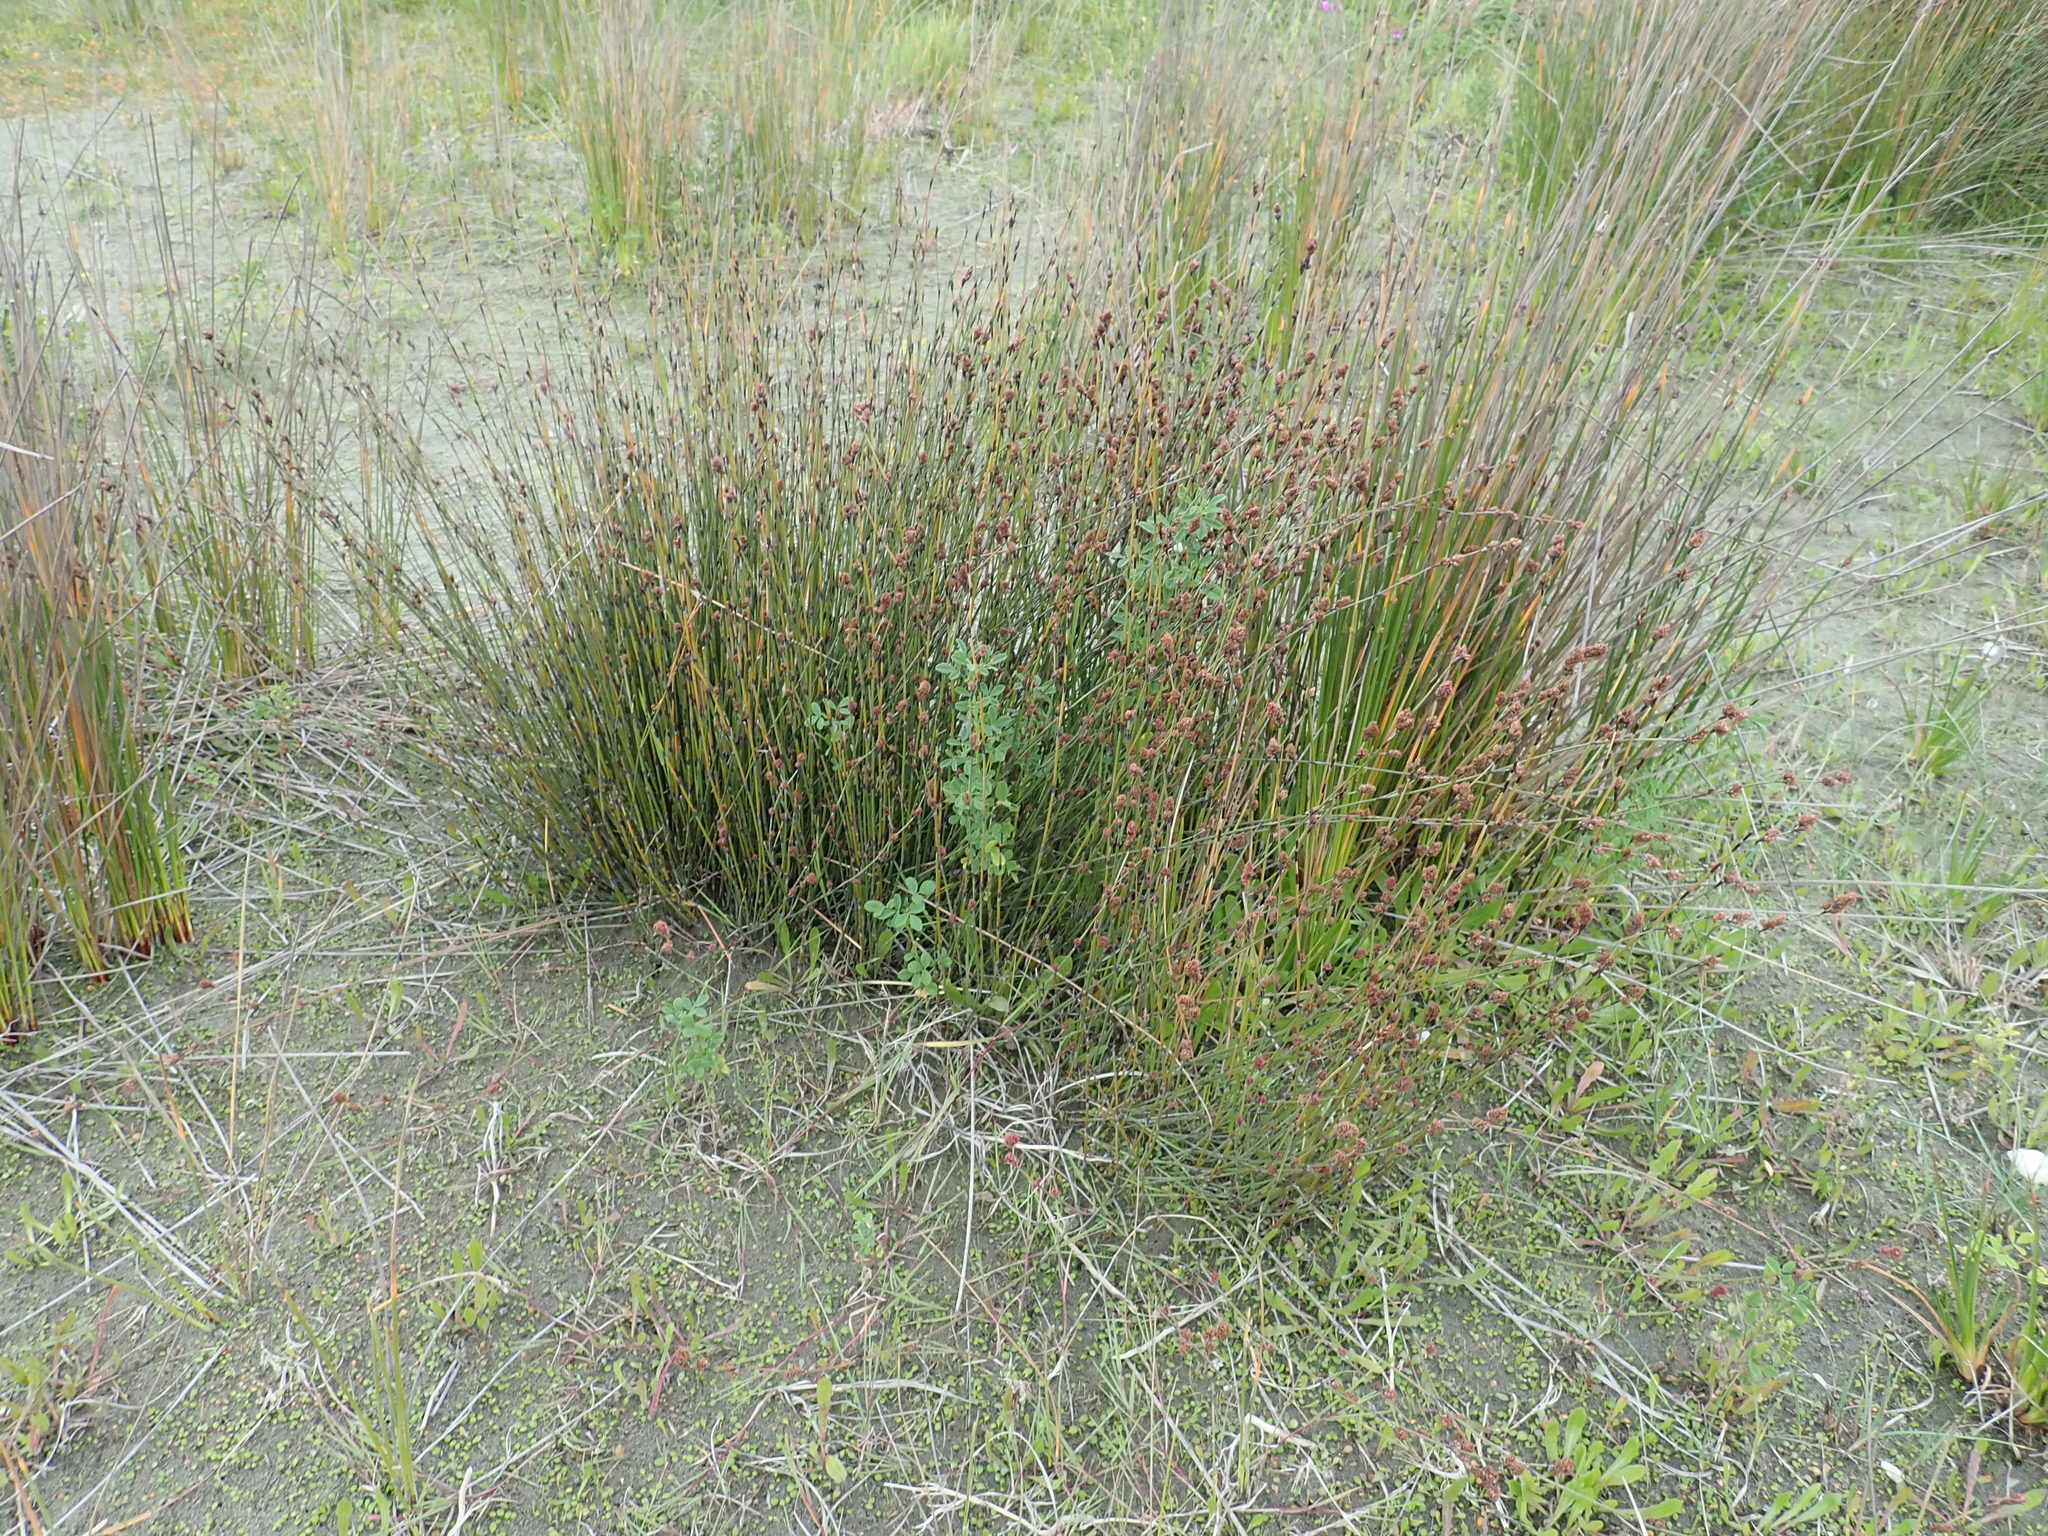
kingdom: Plantae
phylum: Tracheophyta
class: Liliopsida
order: Poales
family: Restionaceae
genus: Apodasmia
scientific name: Apodasmia similis
